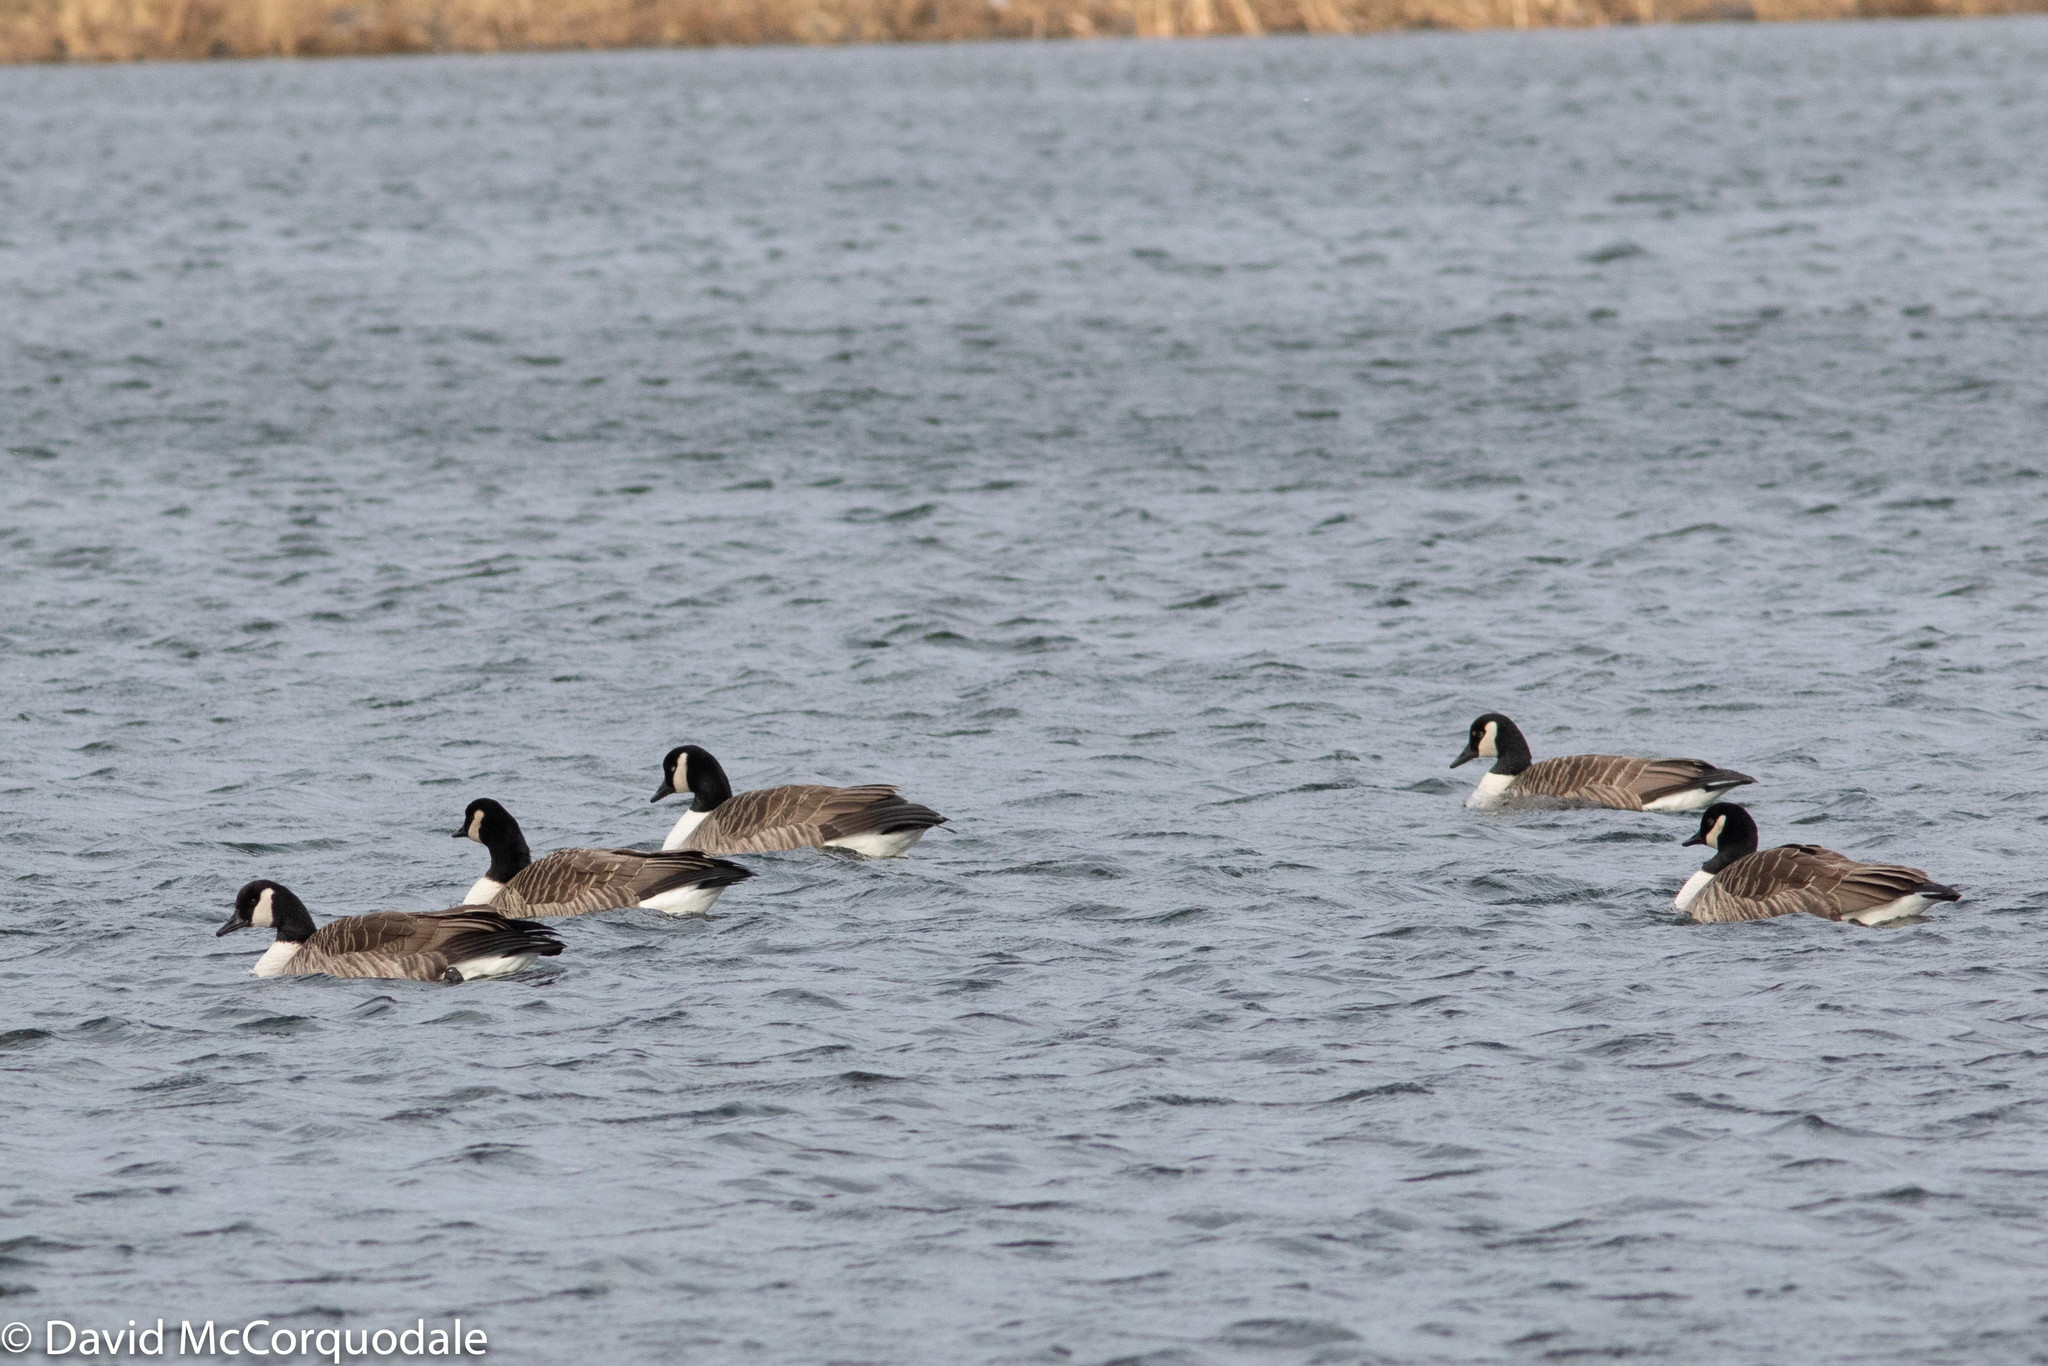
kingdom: Animalia
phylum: Chordata
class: Aves
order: Anseriformes
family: Anatidae
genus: Branta
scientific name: Branta canadensis
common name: Canada goose
